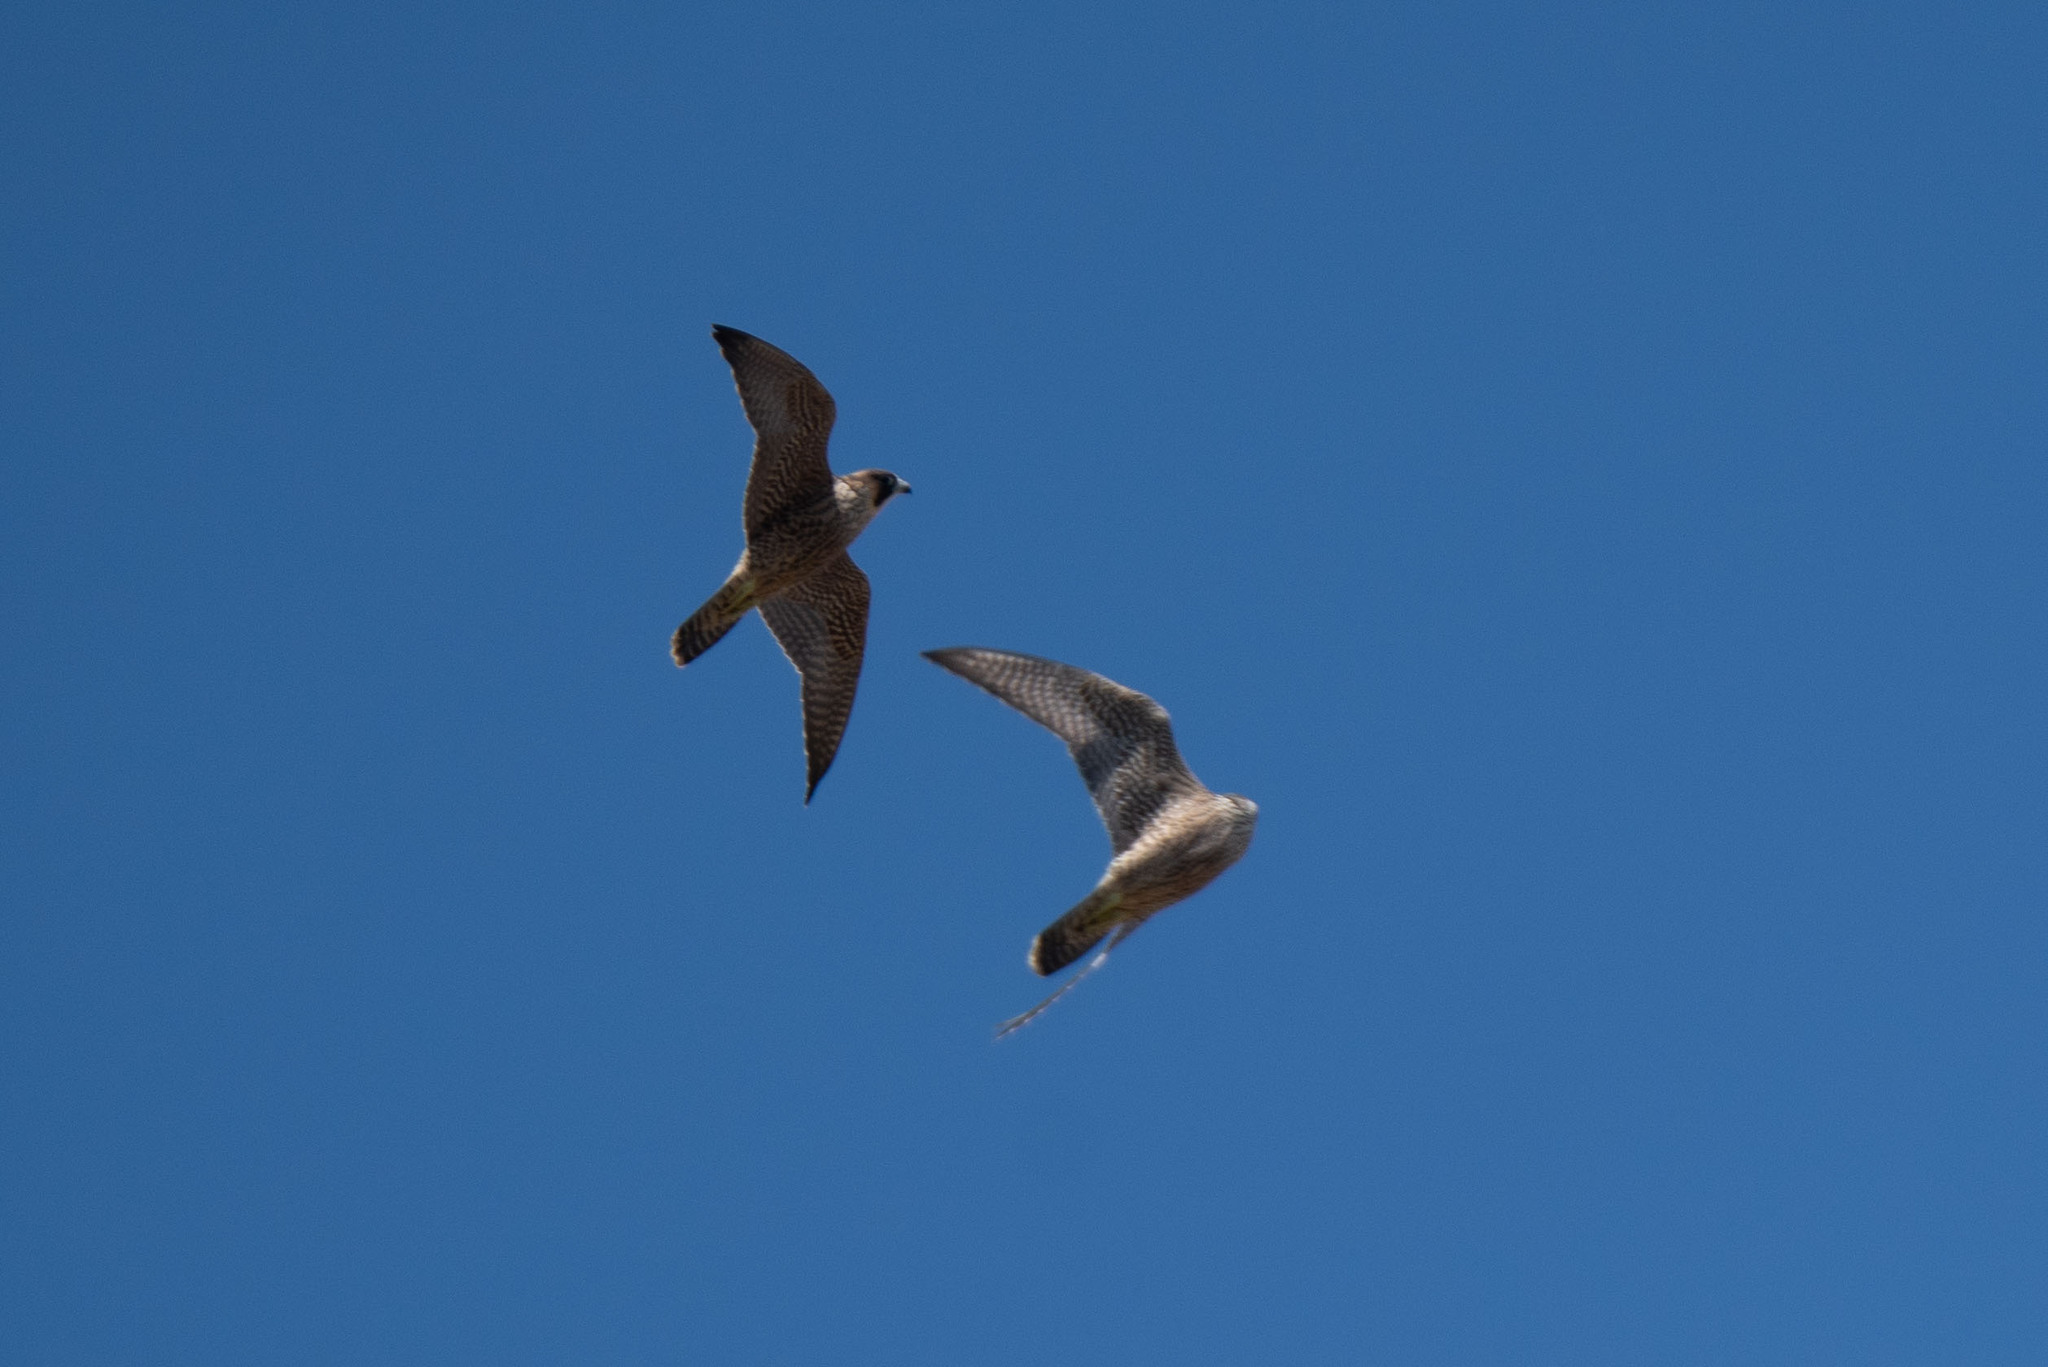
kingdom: Animalia
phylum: Chordata
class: Aves
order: Falconiformes
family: Falconidae
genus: Falco
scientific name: Falco peregrinus
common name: Peregrine falcon
